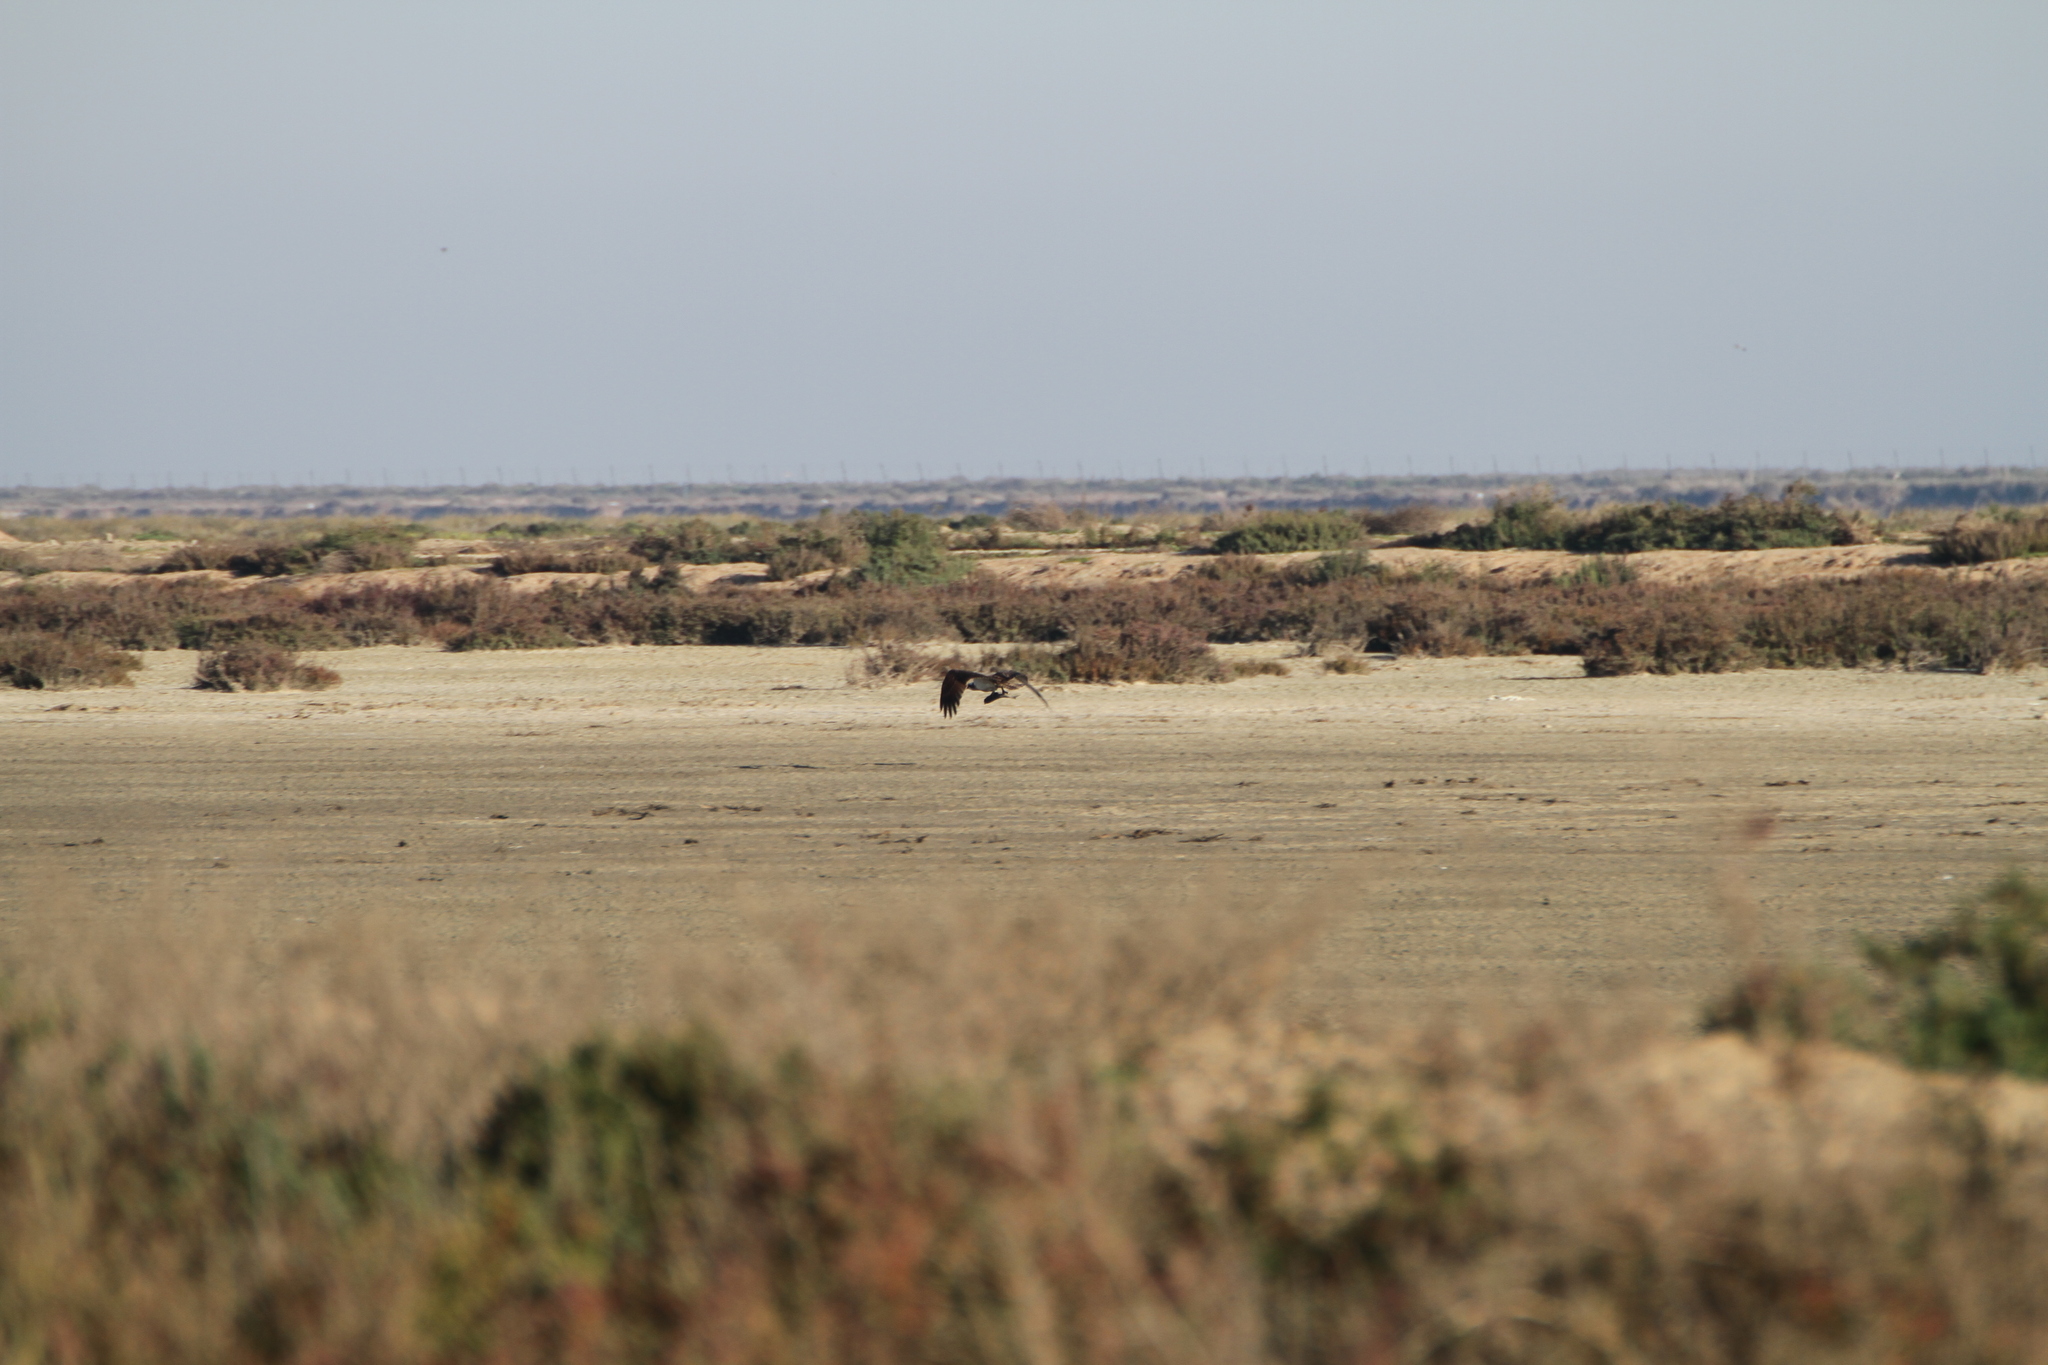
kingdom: Animalia
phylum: Chordata
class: Aves
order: Accipitriformes
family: Pandionidae
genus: Pandion
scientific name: Pandion haliaetus
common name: Osprey
